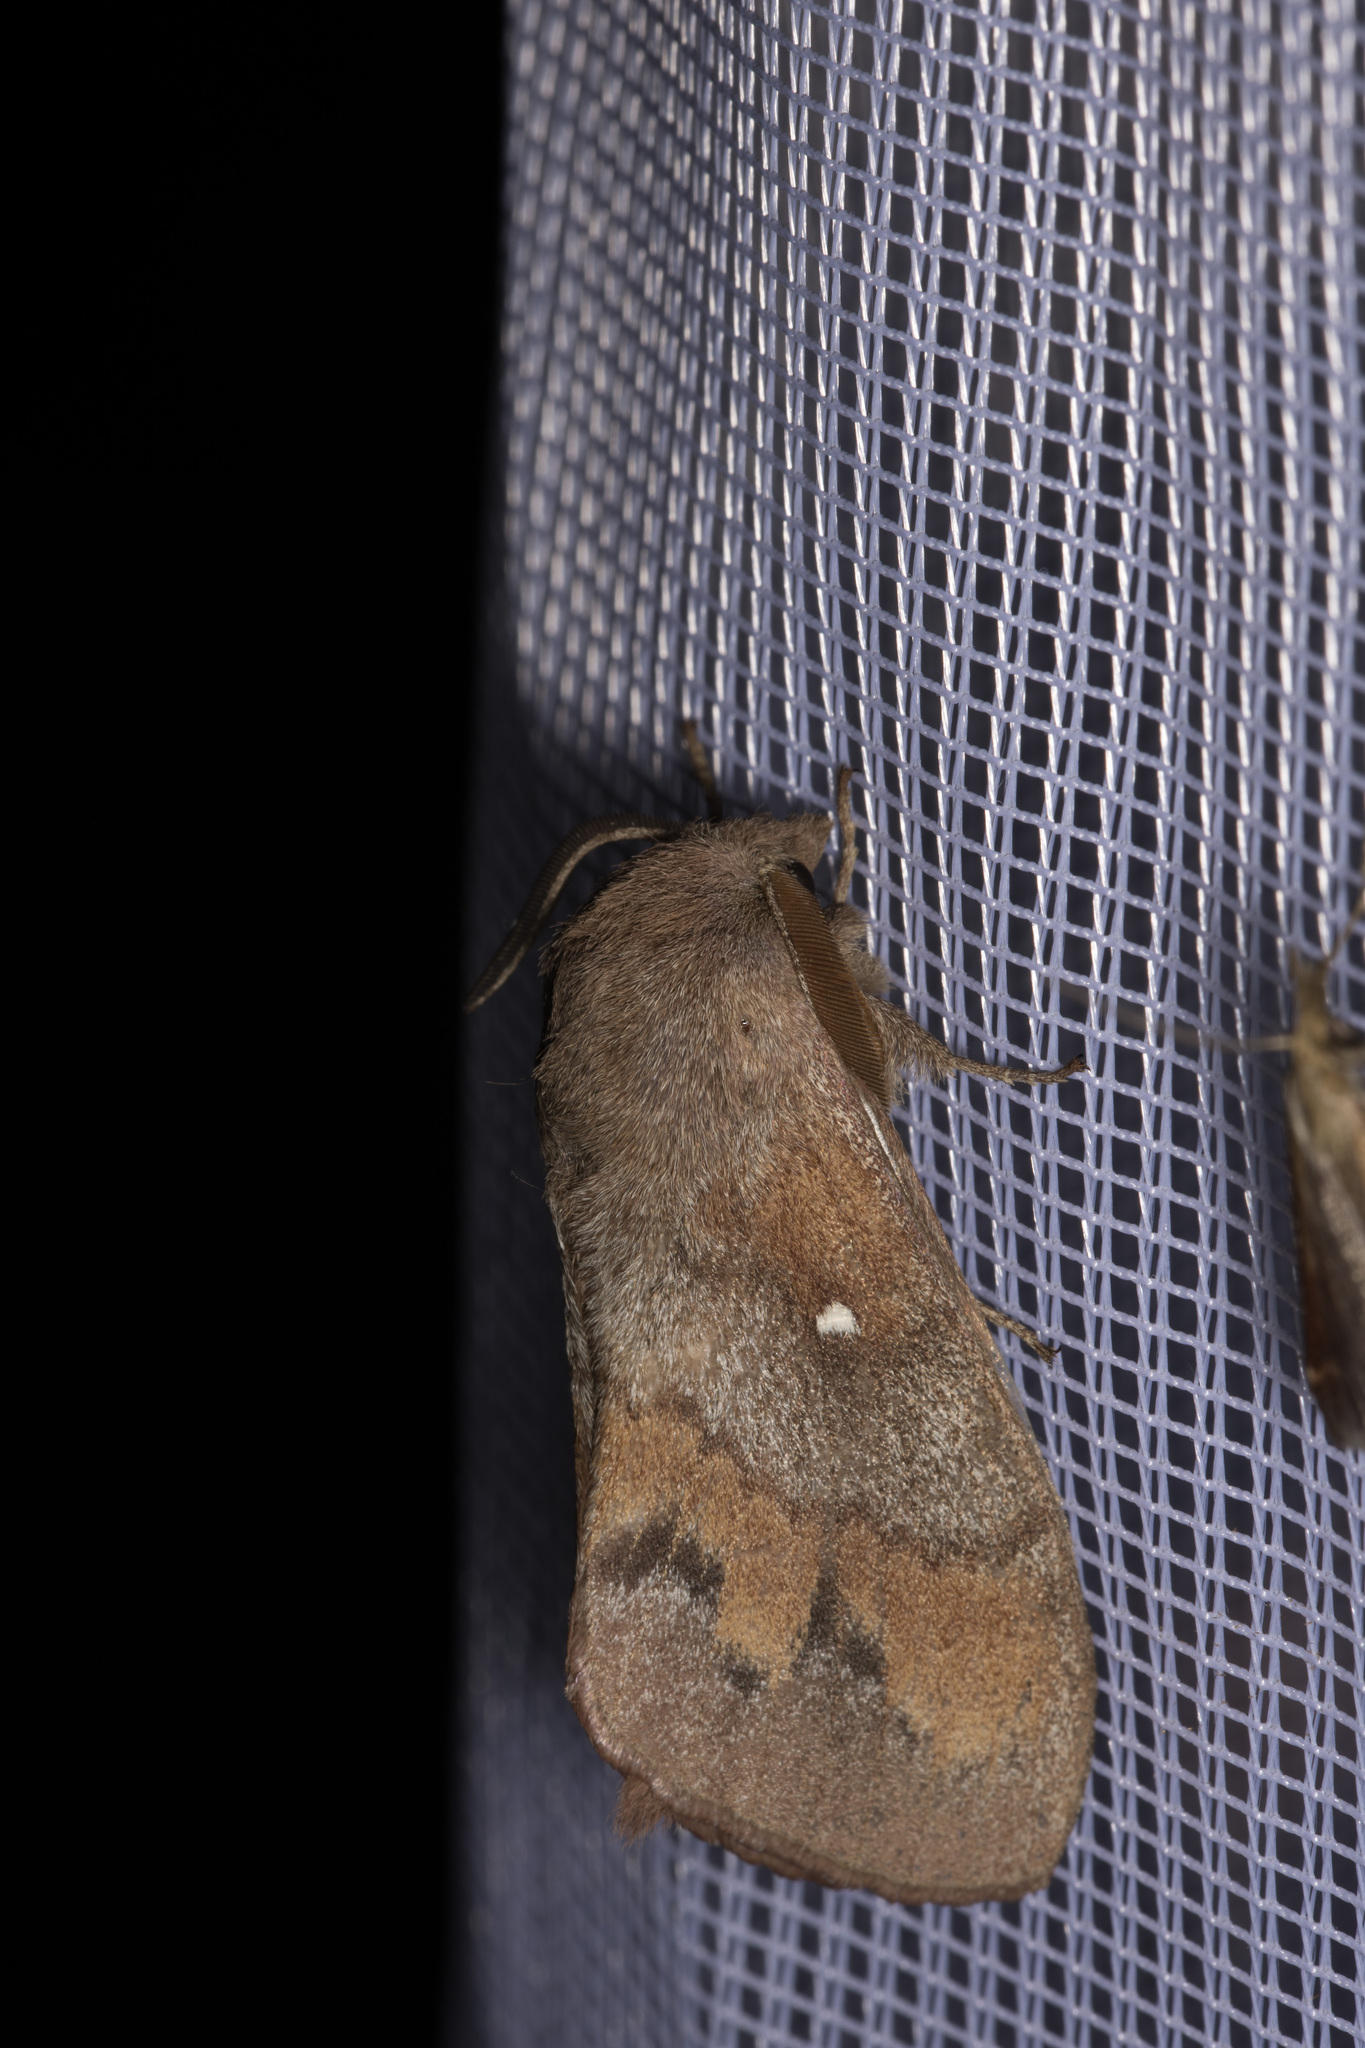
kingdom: Animalia
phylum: Arthropoda
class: Insecta
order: Lepidoptera
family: Lasiocampidae
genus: Dendrolimus
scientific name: Dendrolimus pini
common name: Pine-tree lappet
